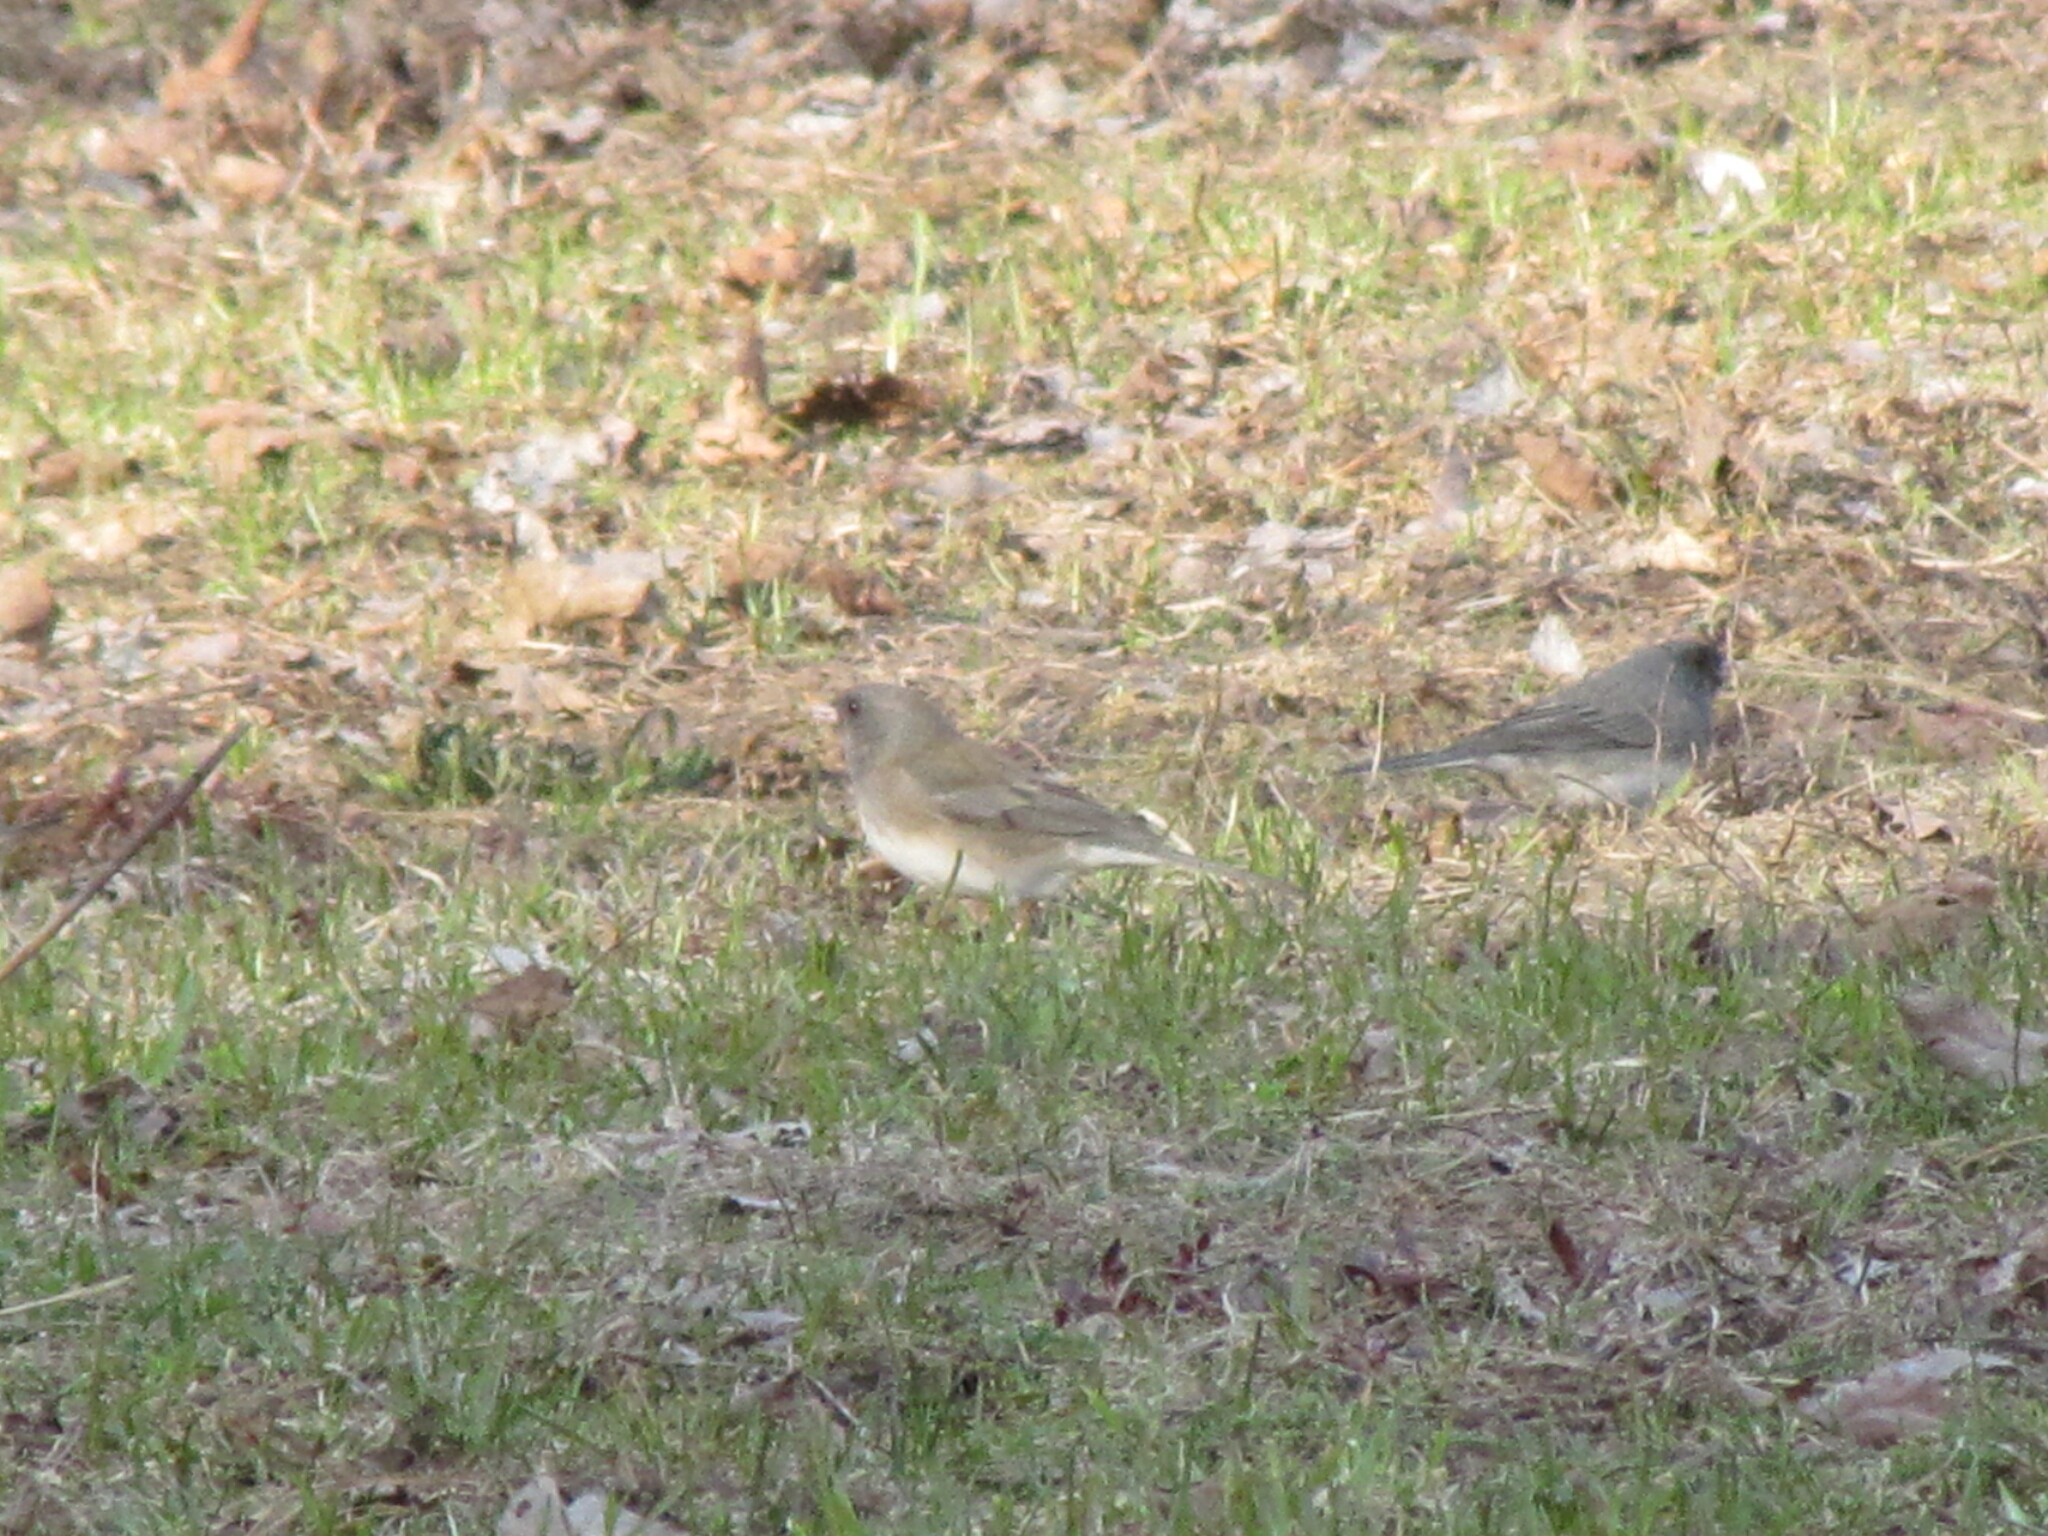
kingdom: Animalia
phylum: Chordata
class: Aves
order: Passeriformes
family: Passerellidae
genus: Junco
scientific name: Junco hyemalis
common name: Dark-eyed junco
